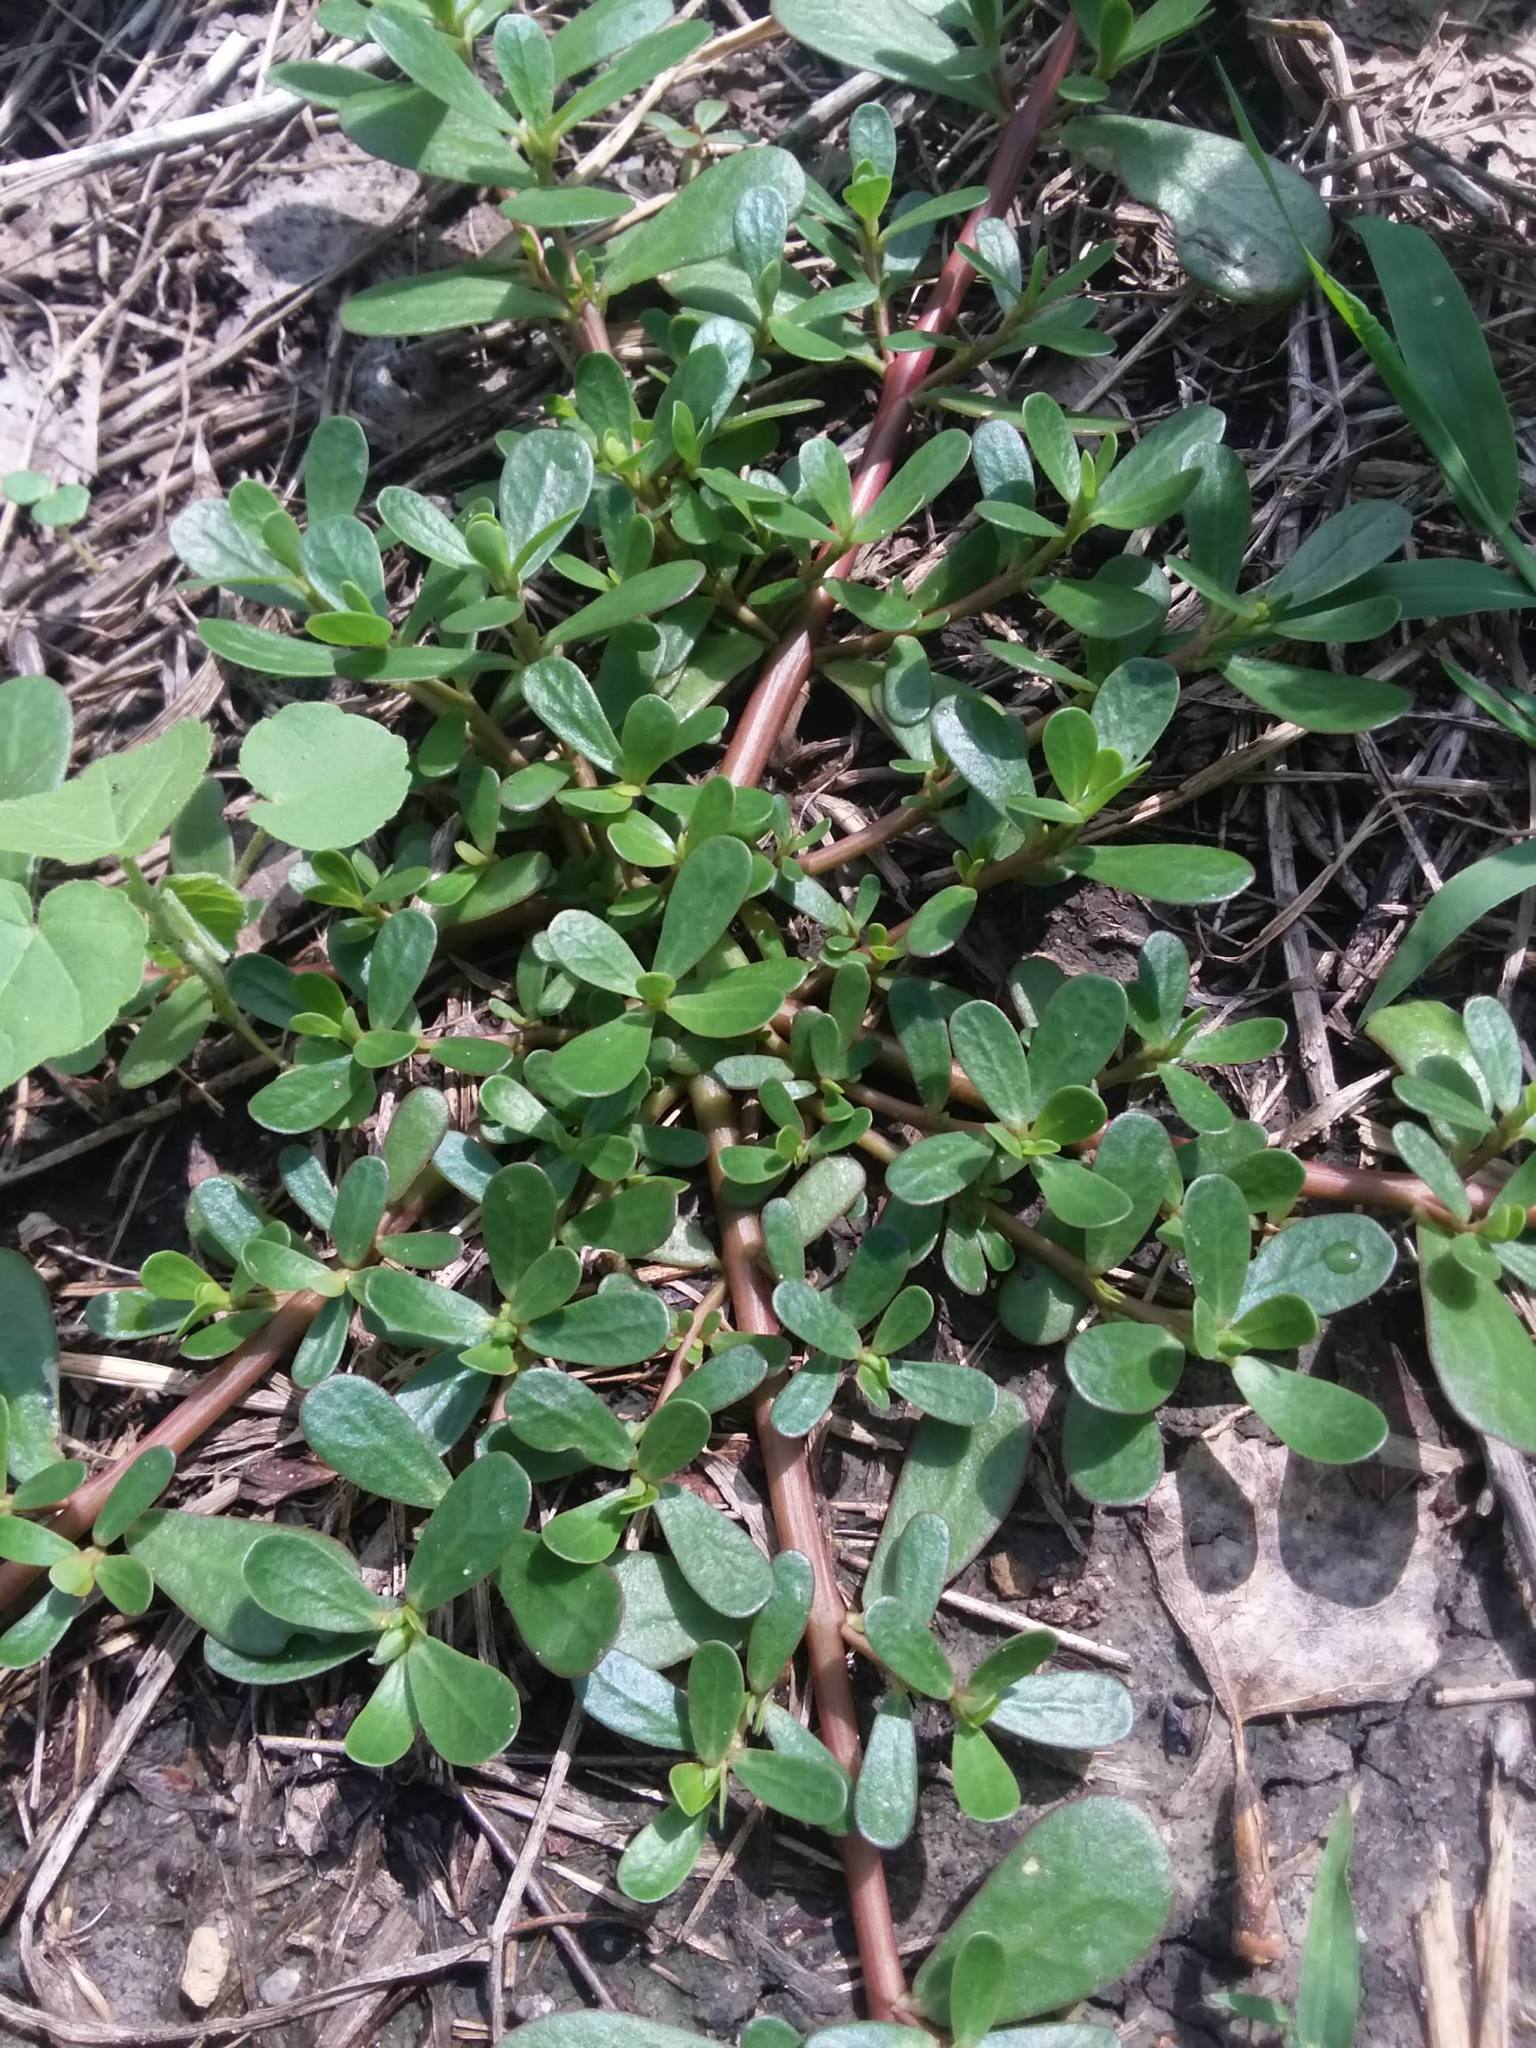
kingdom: Plantae
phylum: Tracheophyta
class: Magnoliopsida
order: Caryophyllales
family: Portulacaceae
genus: Portulaca
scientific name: Portulaca oleracea
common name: Common purslane
